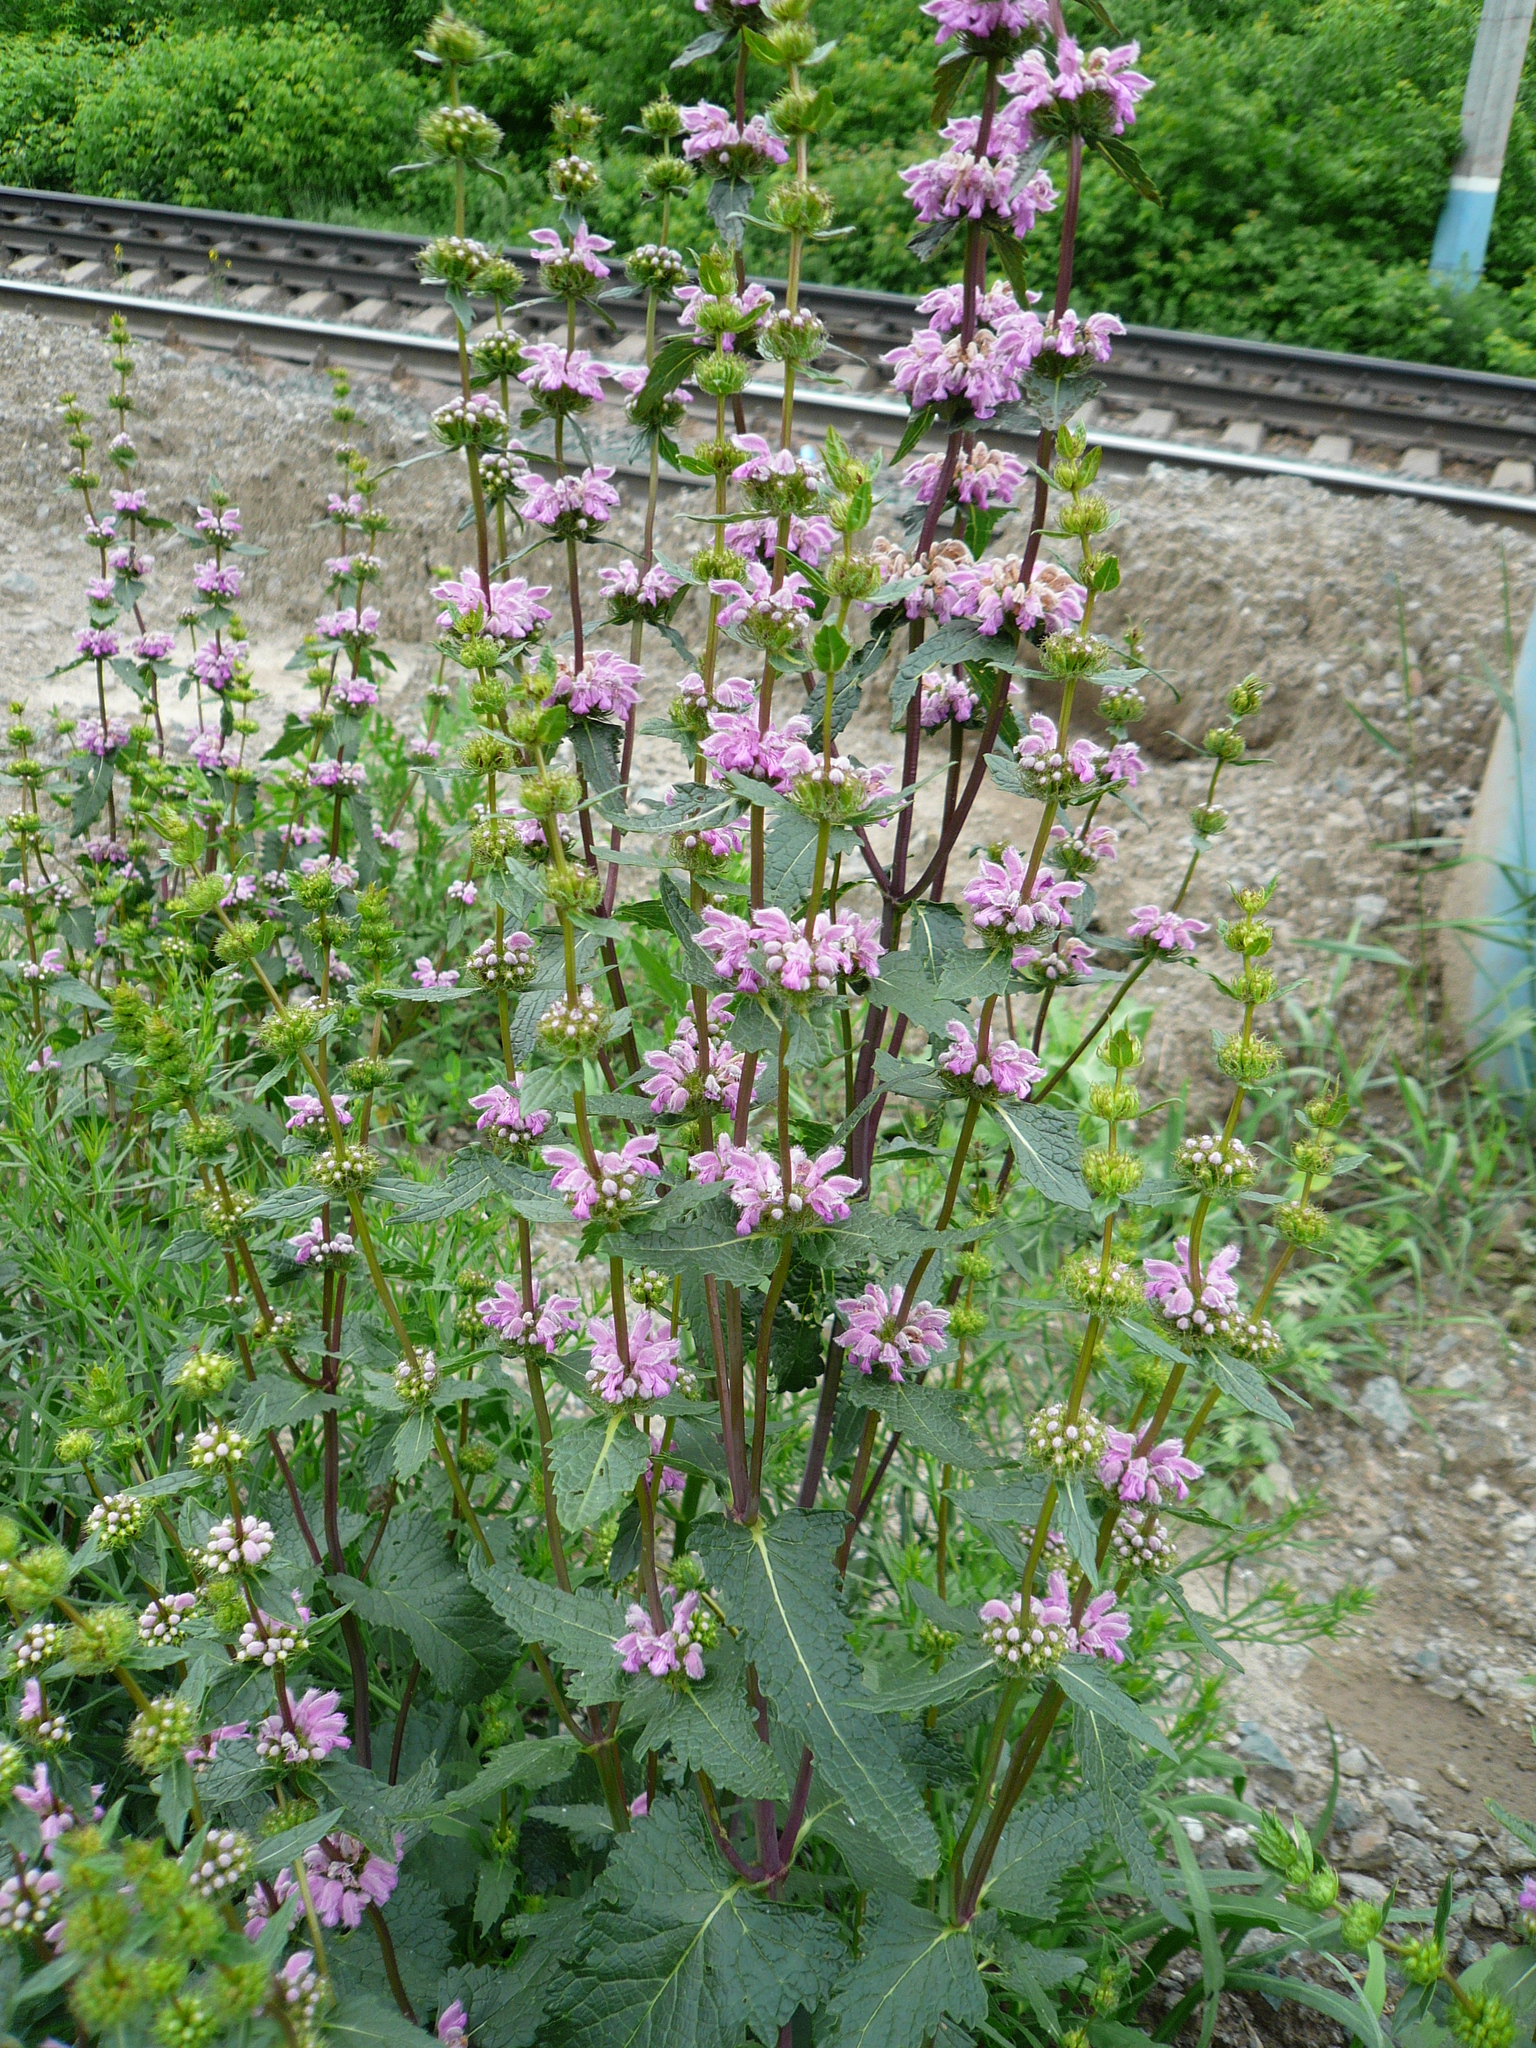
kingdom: Plantae
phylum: Tracheophyta
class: Magnoliopsida
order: Lamiales
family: Lamiaceae
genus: Phlomoides
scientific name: Phlomoides tuberosa
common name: Tuberous jerusalem sage
